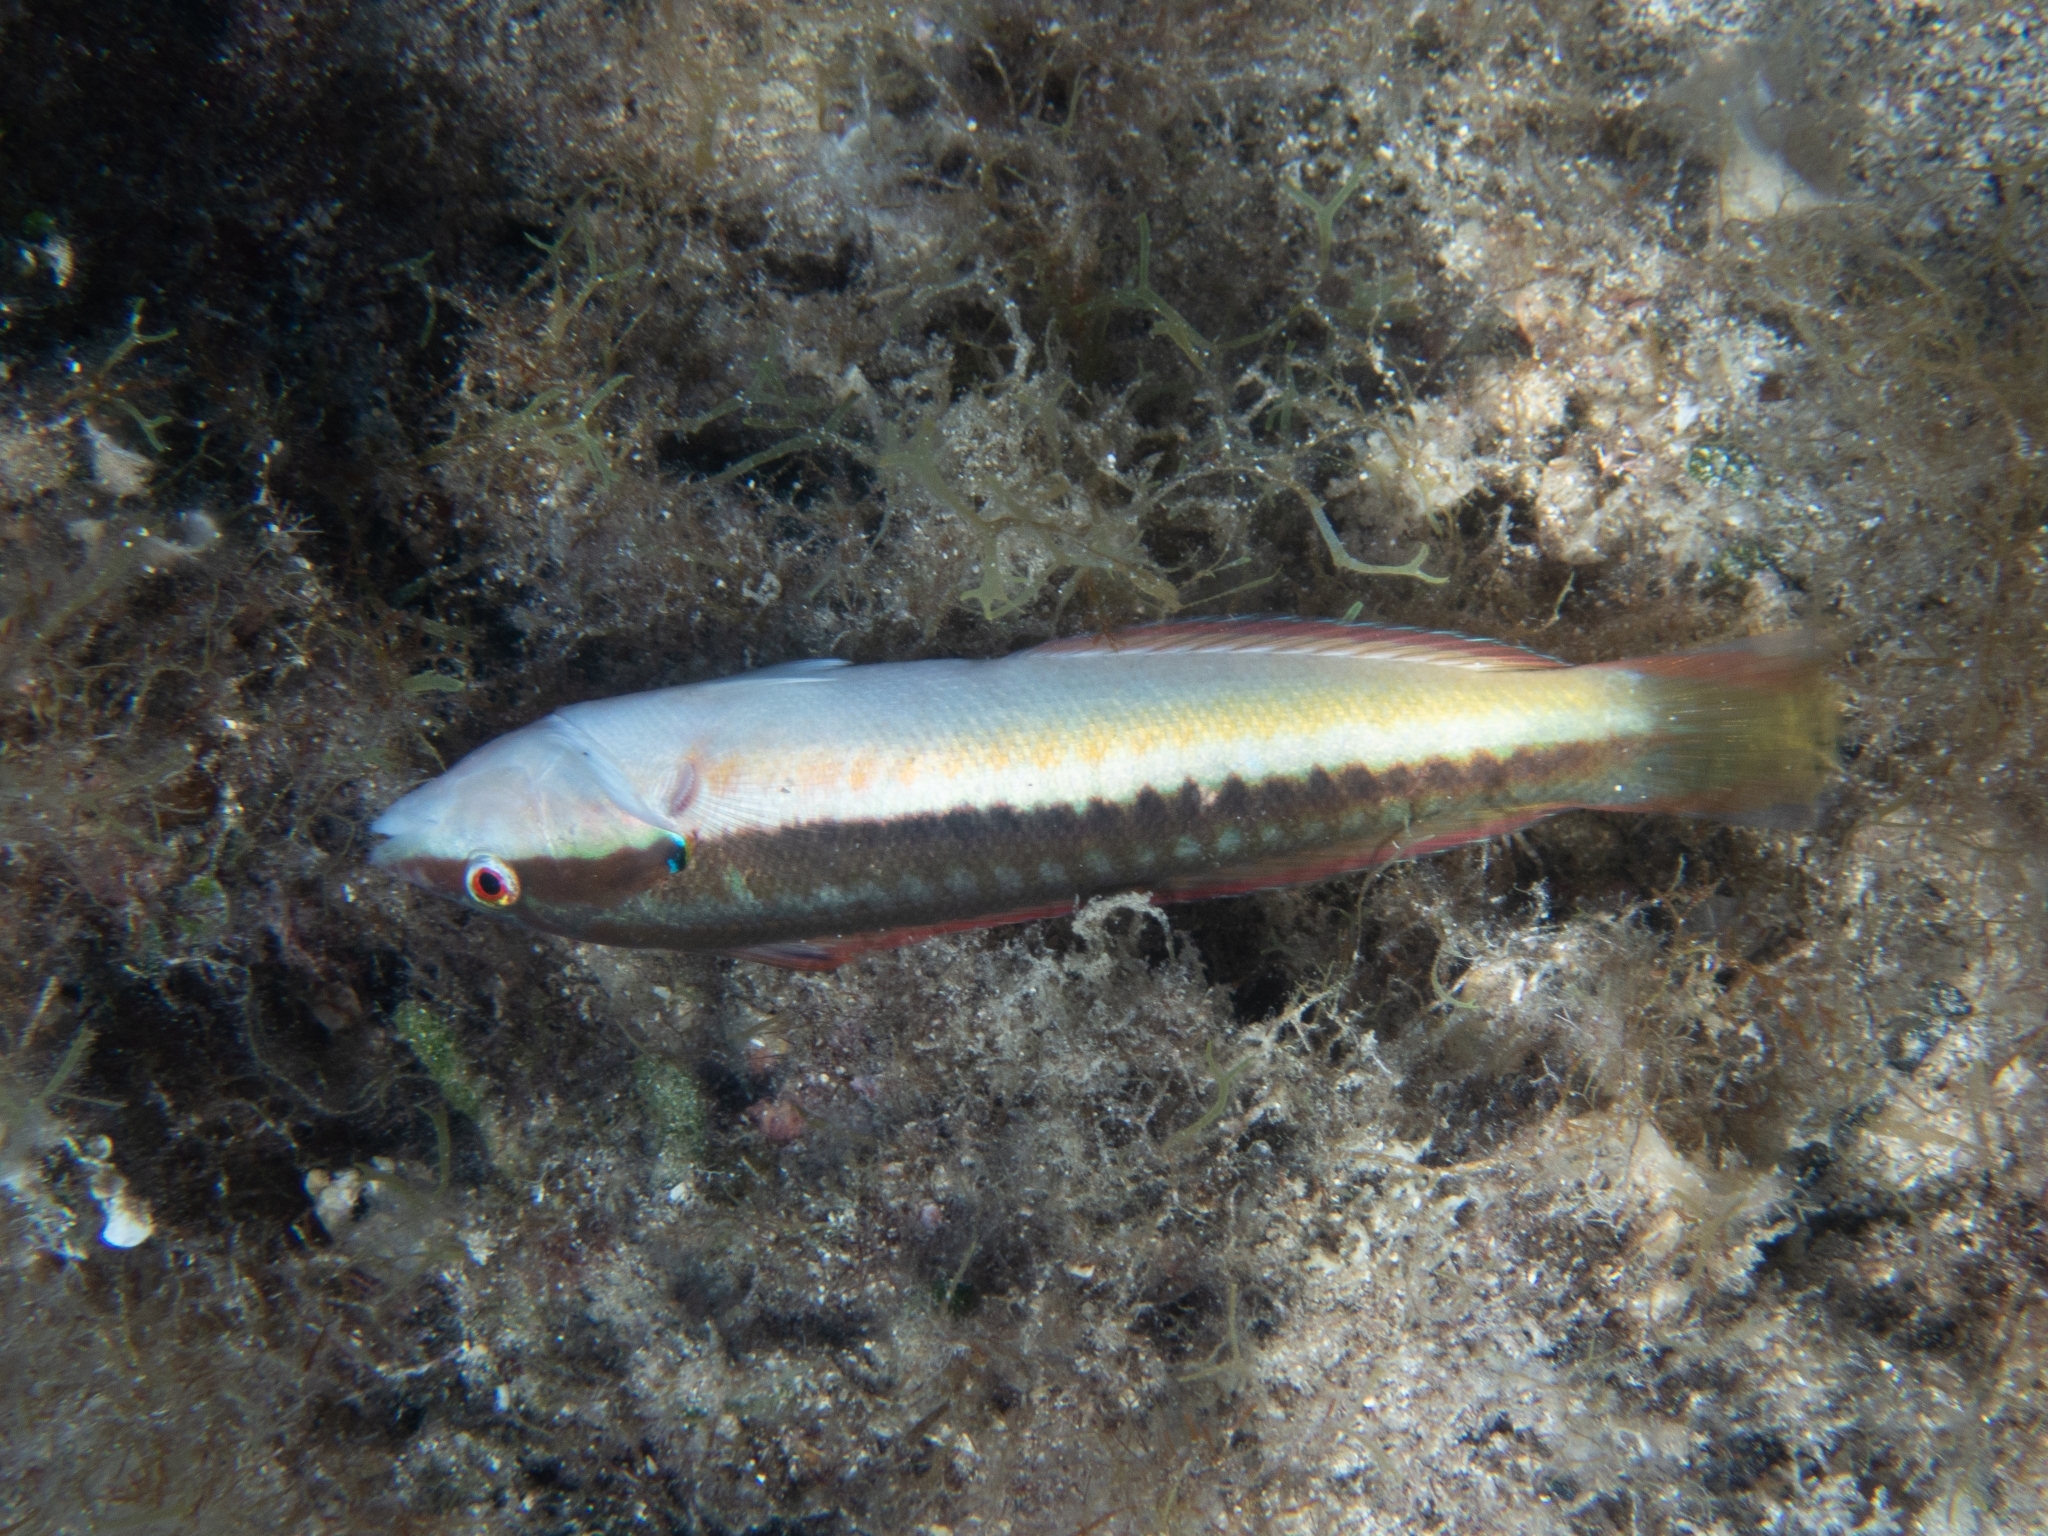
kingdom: Animalia
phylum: Chordata
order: Perciformes
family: Labridae
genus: Coris
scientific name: Coris julis
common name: Rainbow wrasse
